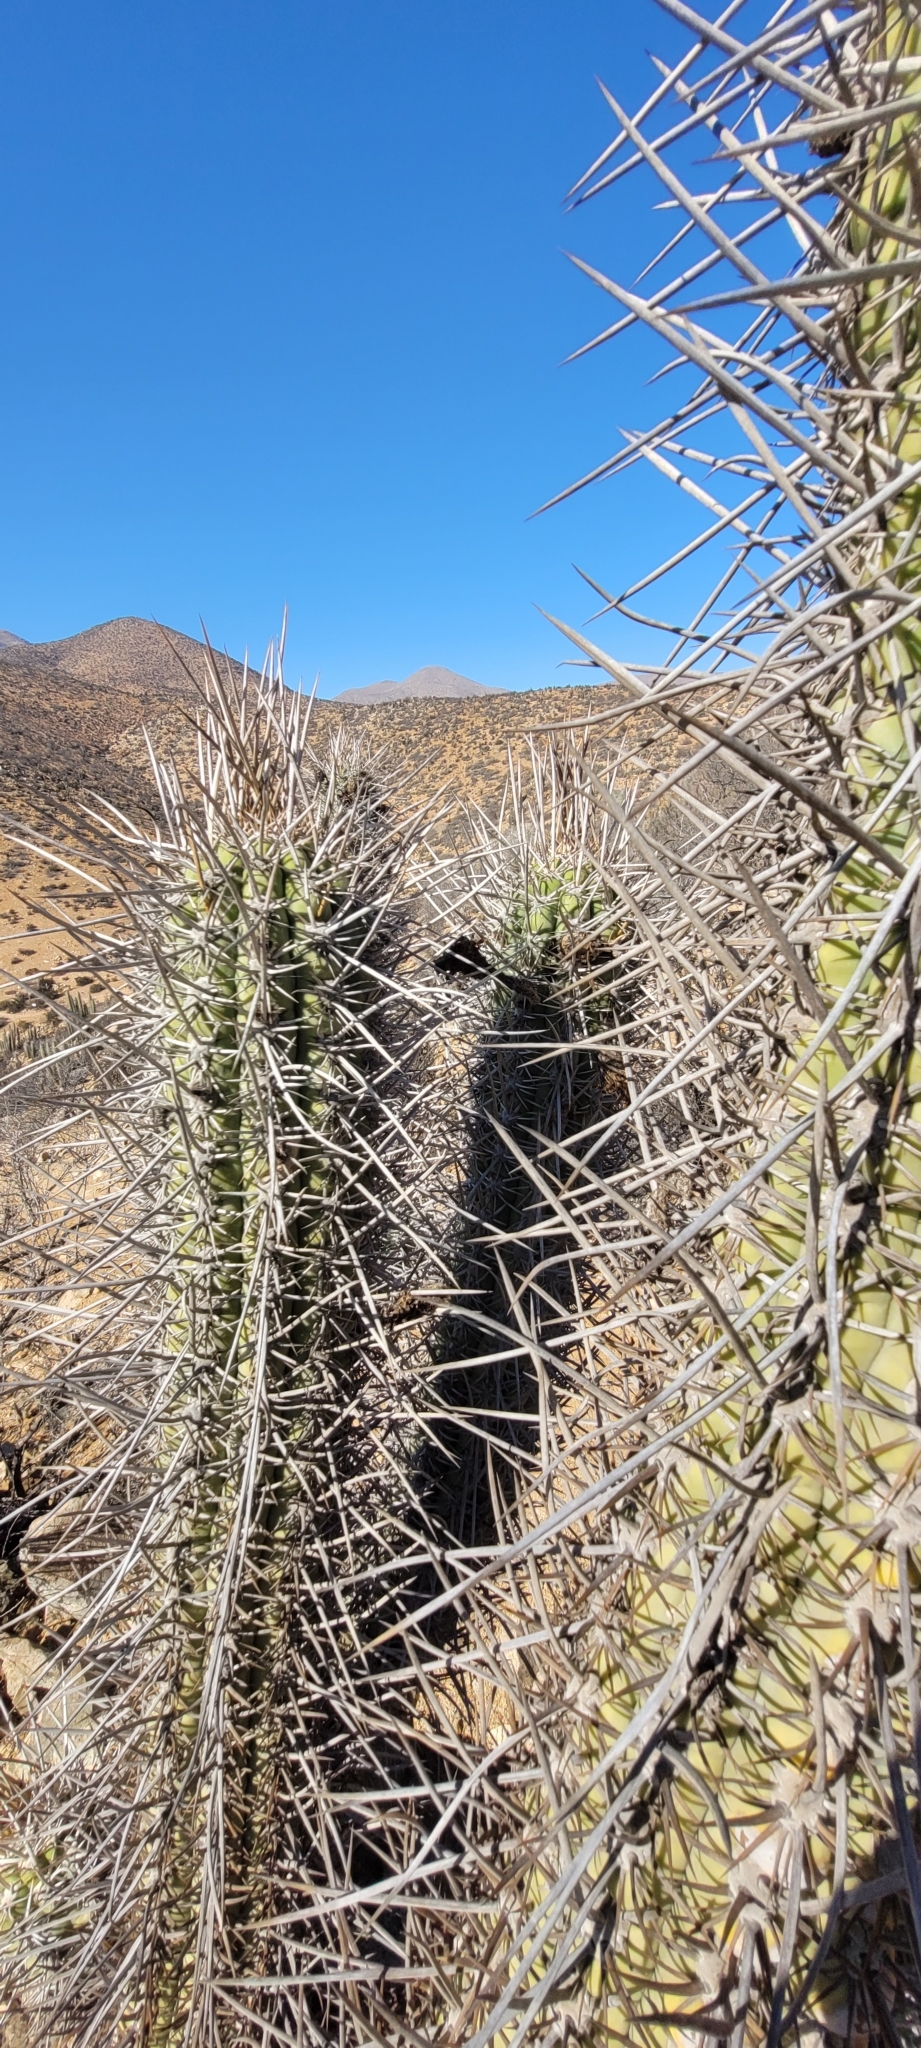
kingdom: Plantae
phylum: Tracheophyta
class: Magnoliopsida
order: Caryophyllales
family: Cactaceae
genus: Leucostele
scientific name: Leucostele deserticola
